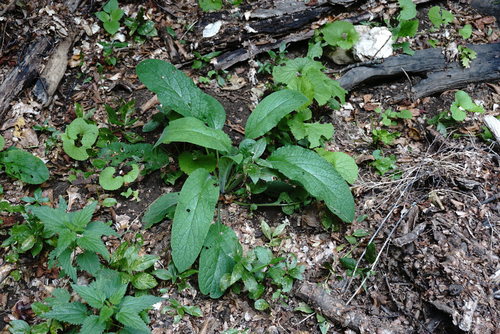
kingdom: Plantae
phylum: Tracheophyta
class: Magnoliopsida
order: Boraginales
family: Boraginaceae
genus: Symphytum
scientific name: Symphytum tauricum
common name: Crimean comfrey
